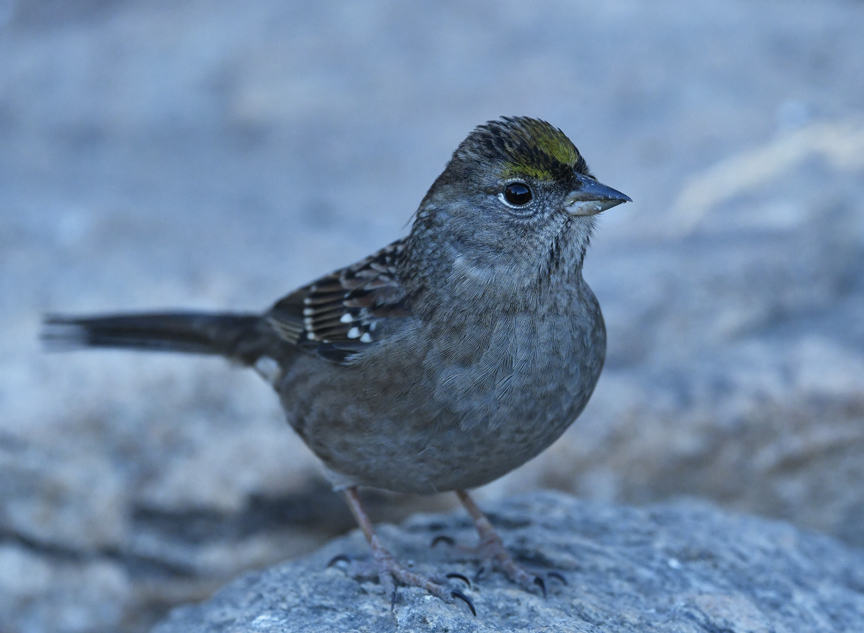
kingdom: Animalia
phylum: Chordata
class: Aves
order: Passeriformes
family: Passerellidae
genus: Zonotrichia
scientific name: Zonotrichia atricapilla
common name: Golden-crowned sparrow
